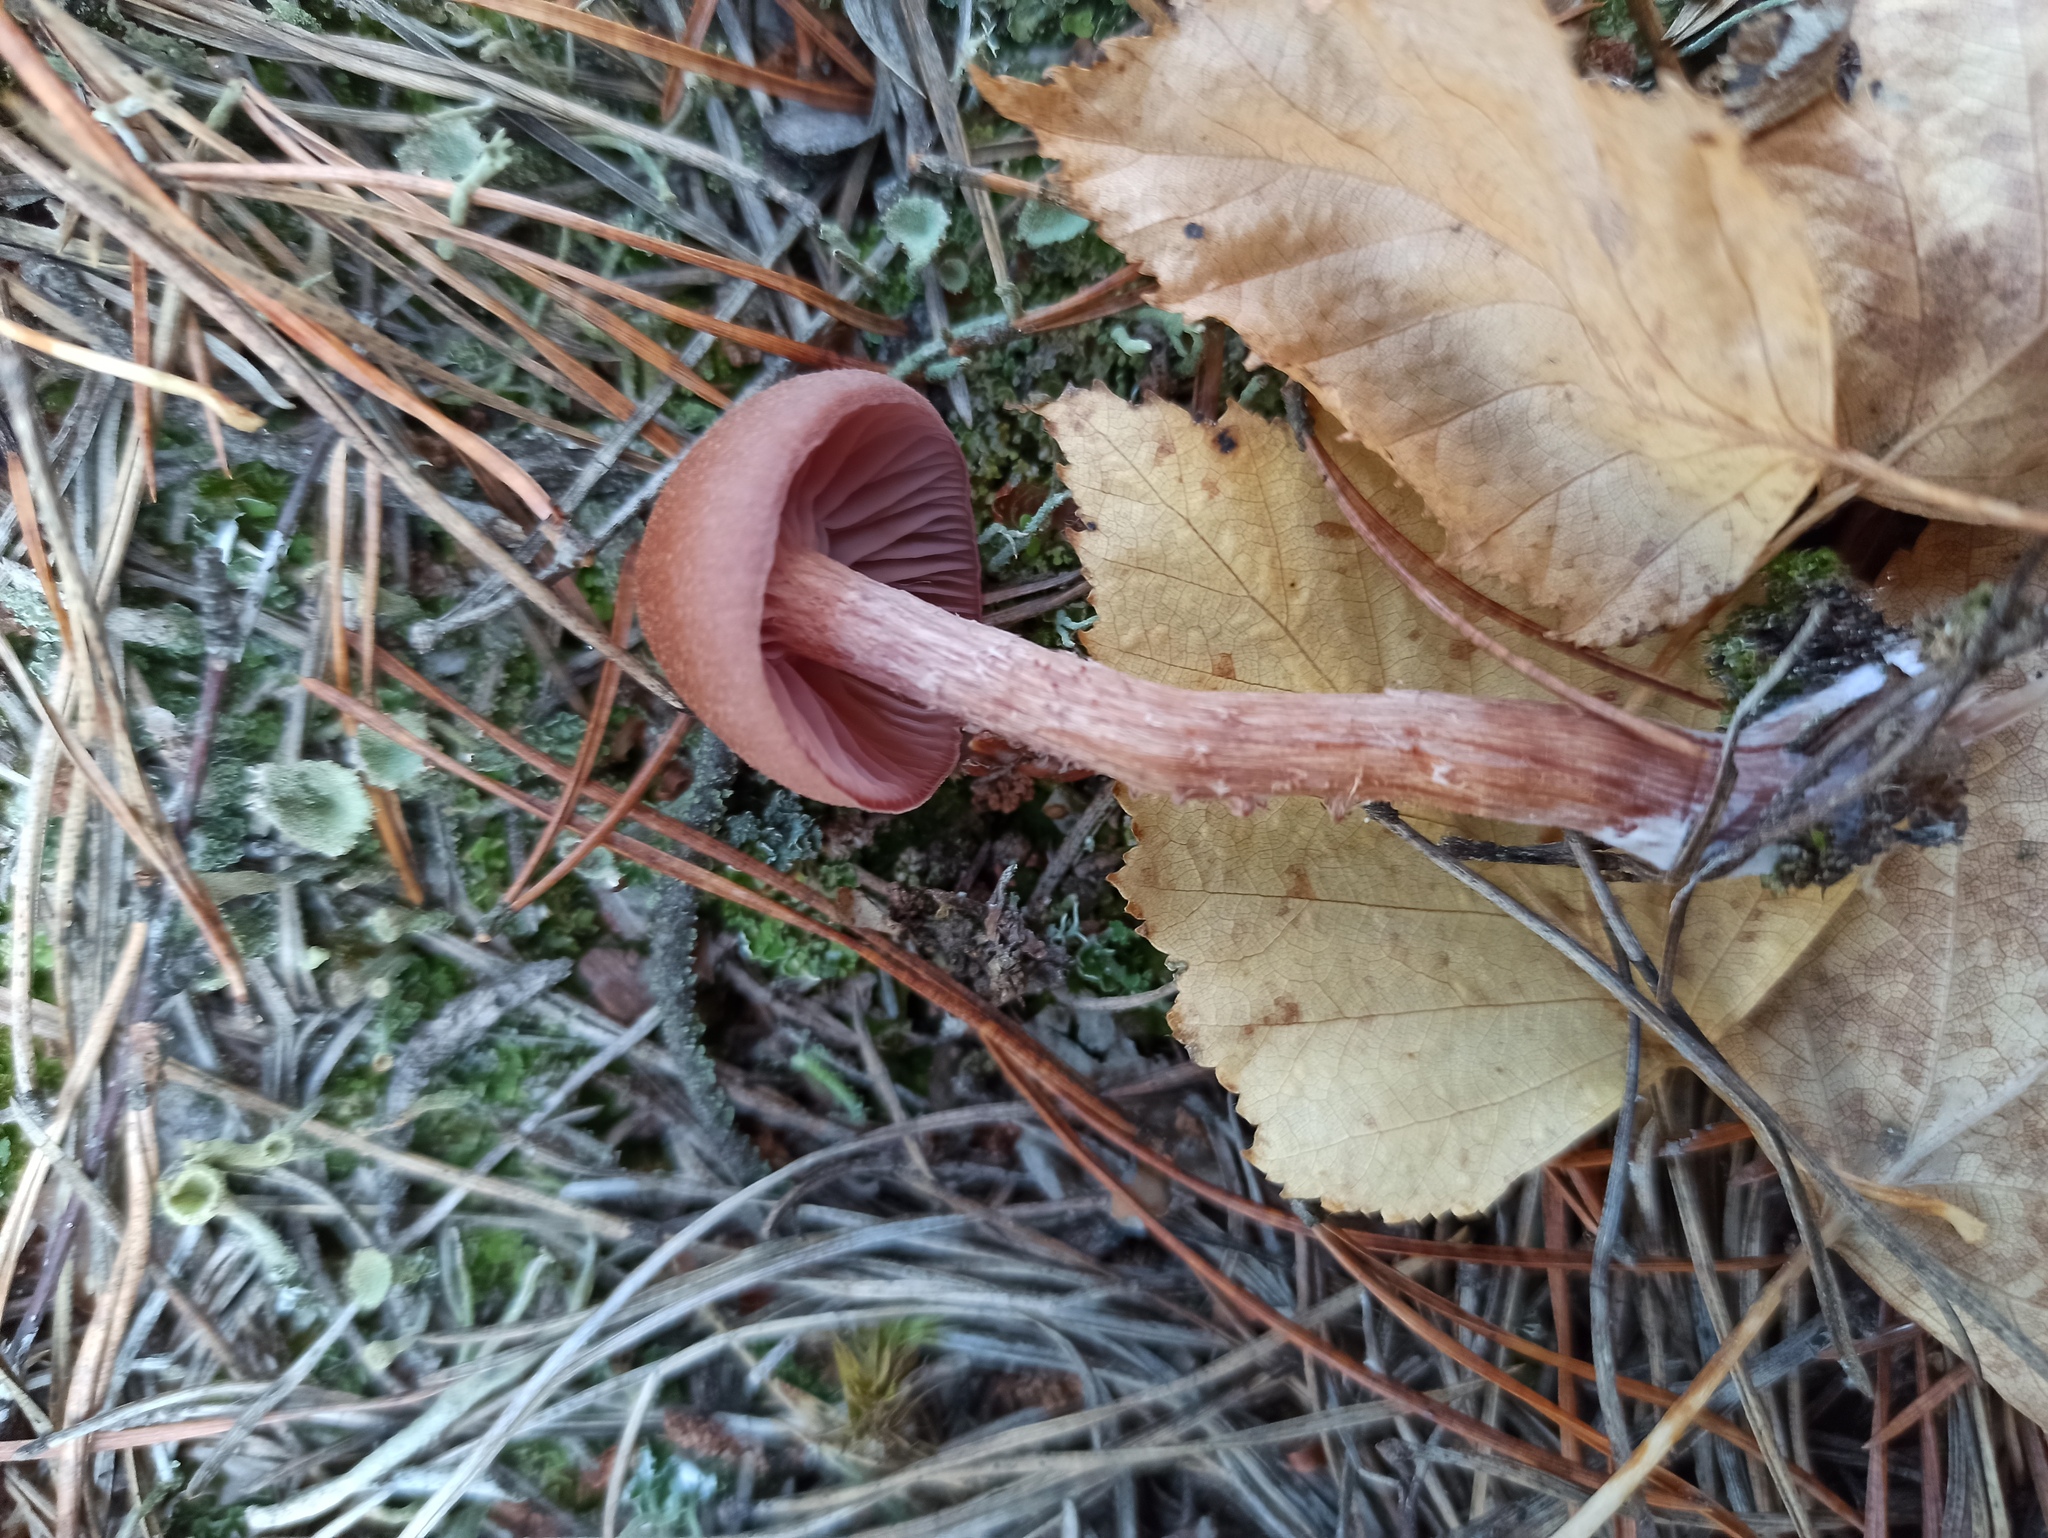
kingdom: Fungi
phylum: Basidiomycota
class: Agaricomycetes
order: Agaricales
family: Hydnangiaceae
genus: Laccaria
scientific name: Laccaria bicolor
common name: Bicoloured deceiver
